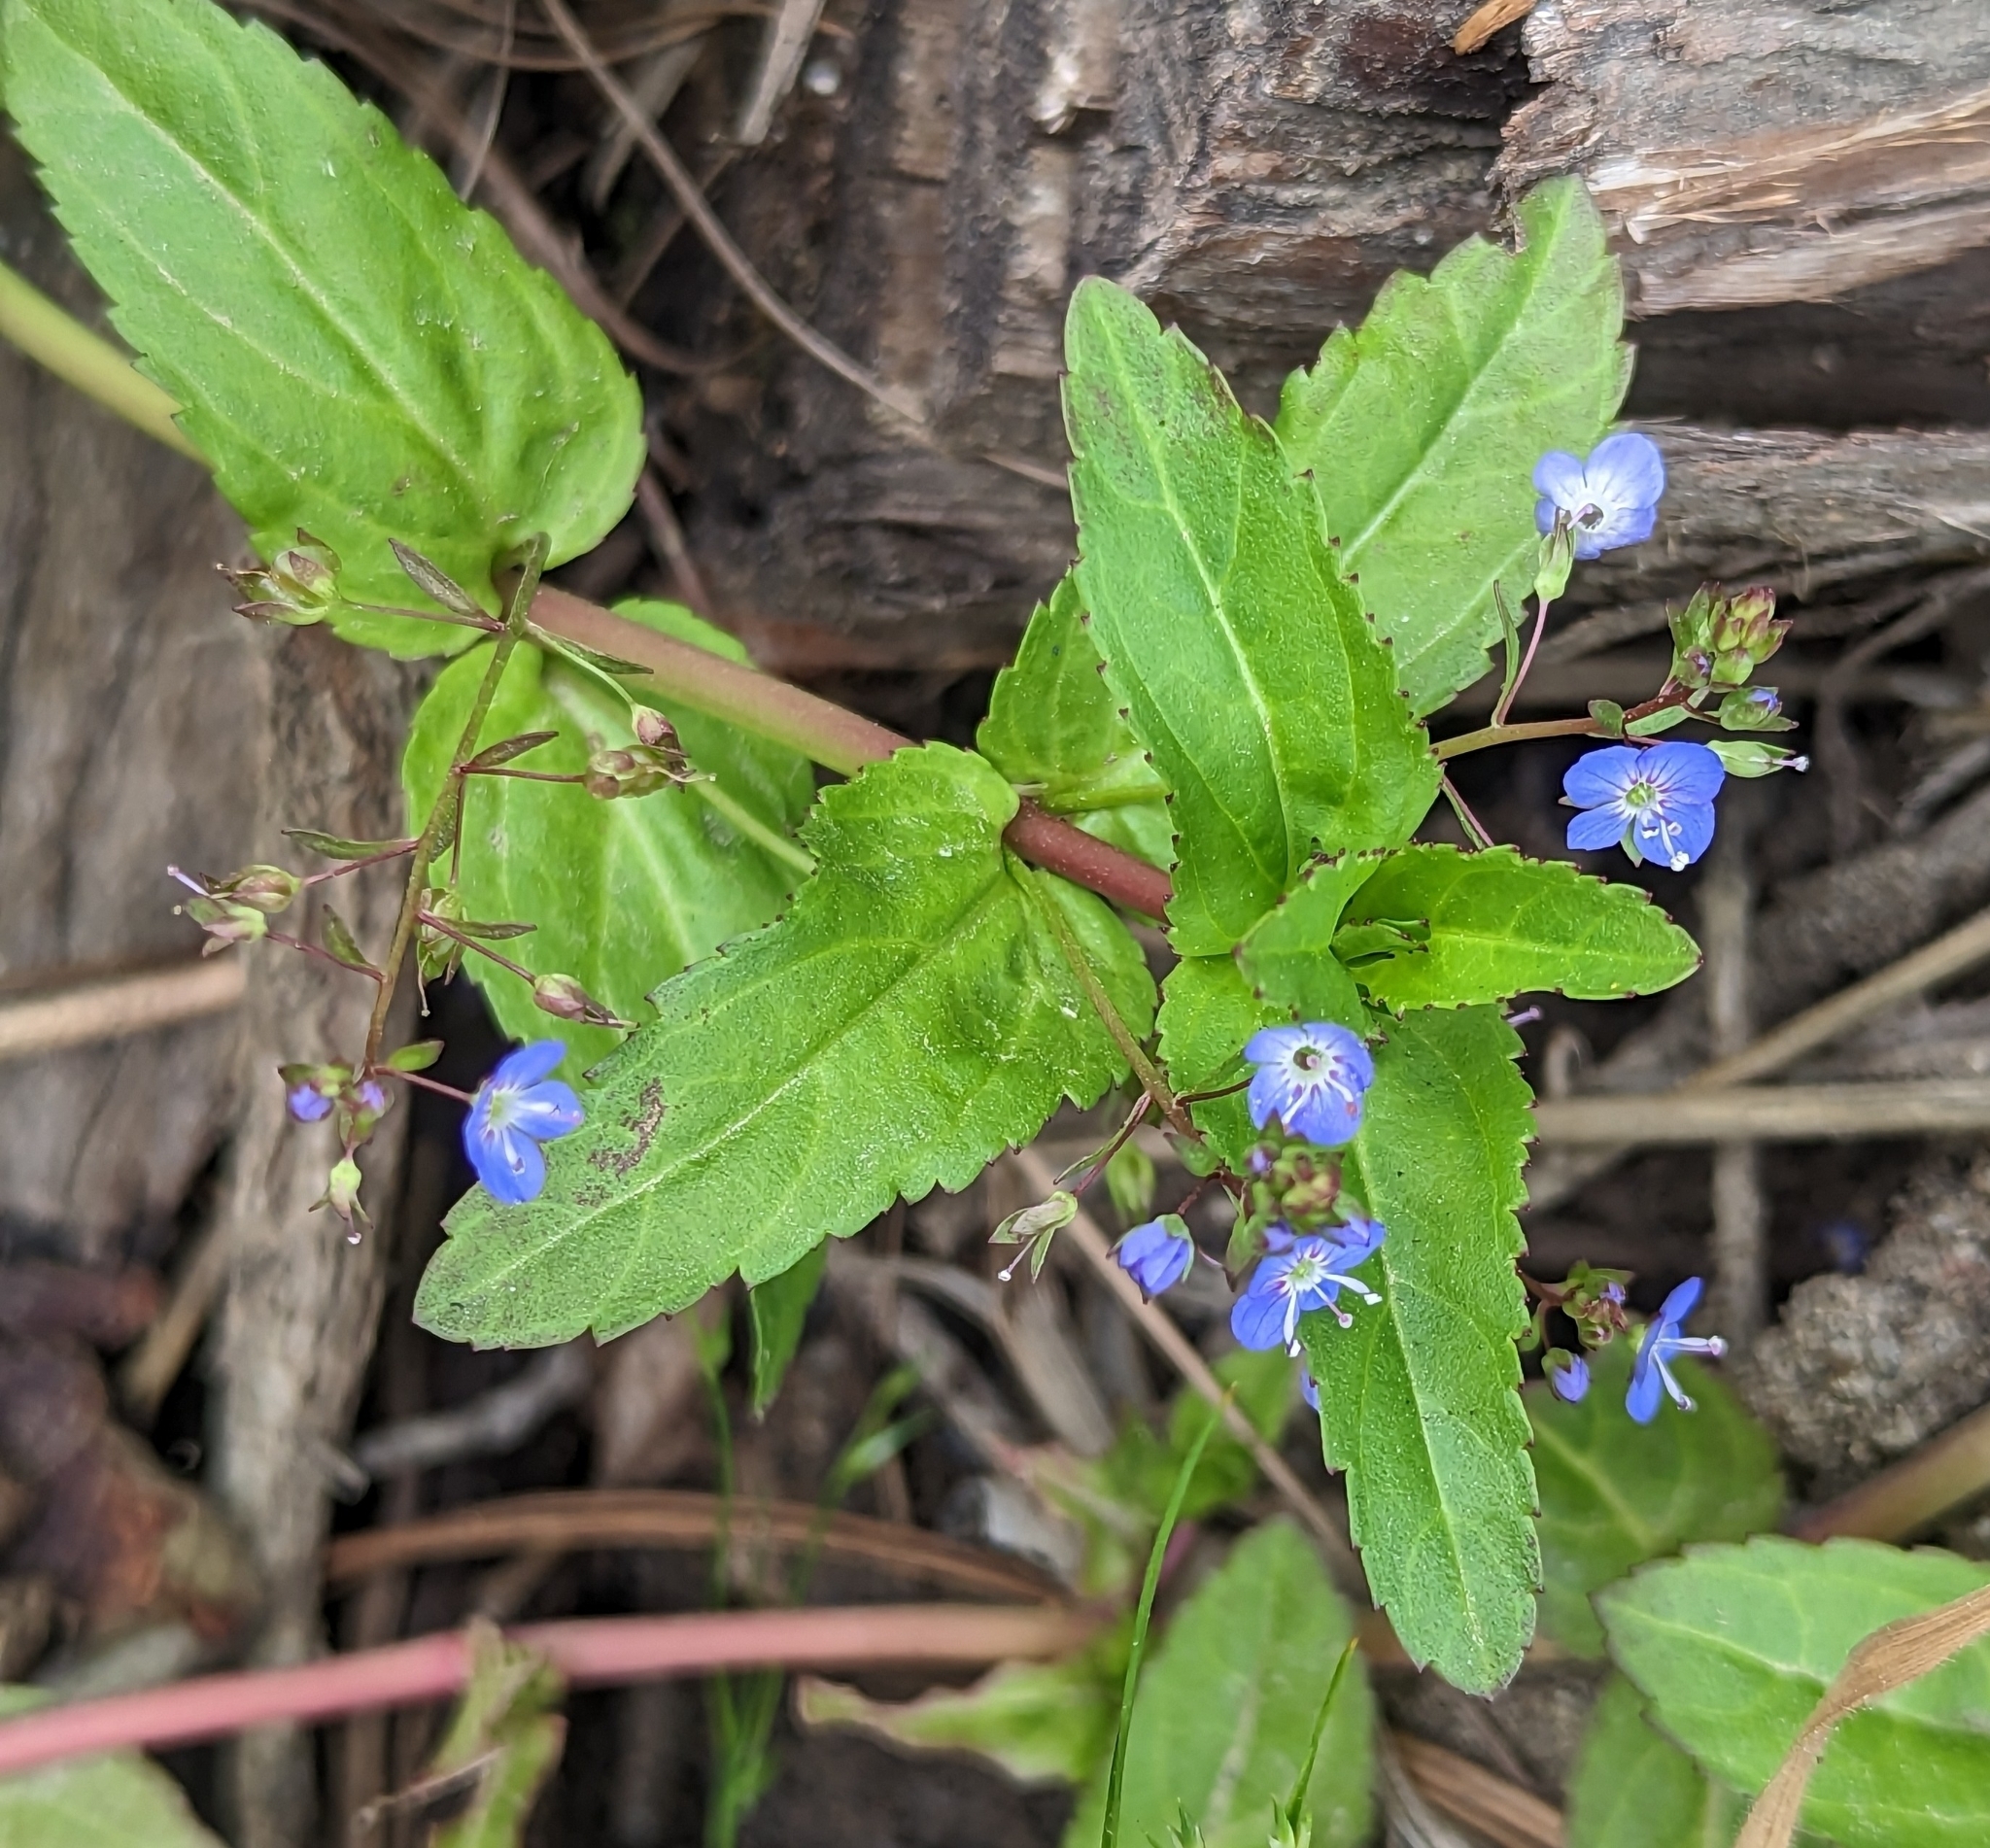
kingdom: Plantae
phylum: Tracheophyta
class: Magnoliopsida
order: Lamiales
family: Plantaginaceae
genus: Veronica
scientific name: Veronica americana
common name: American brooklime
